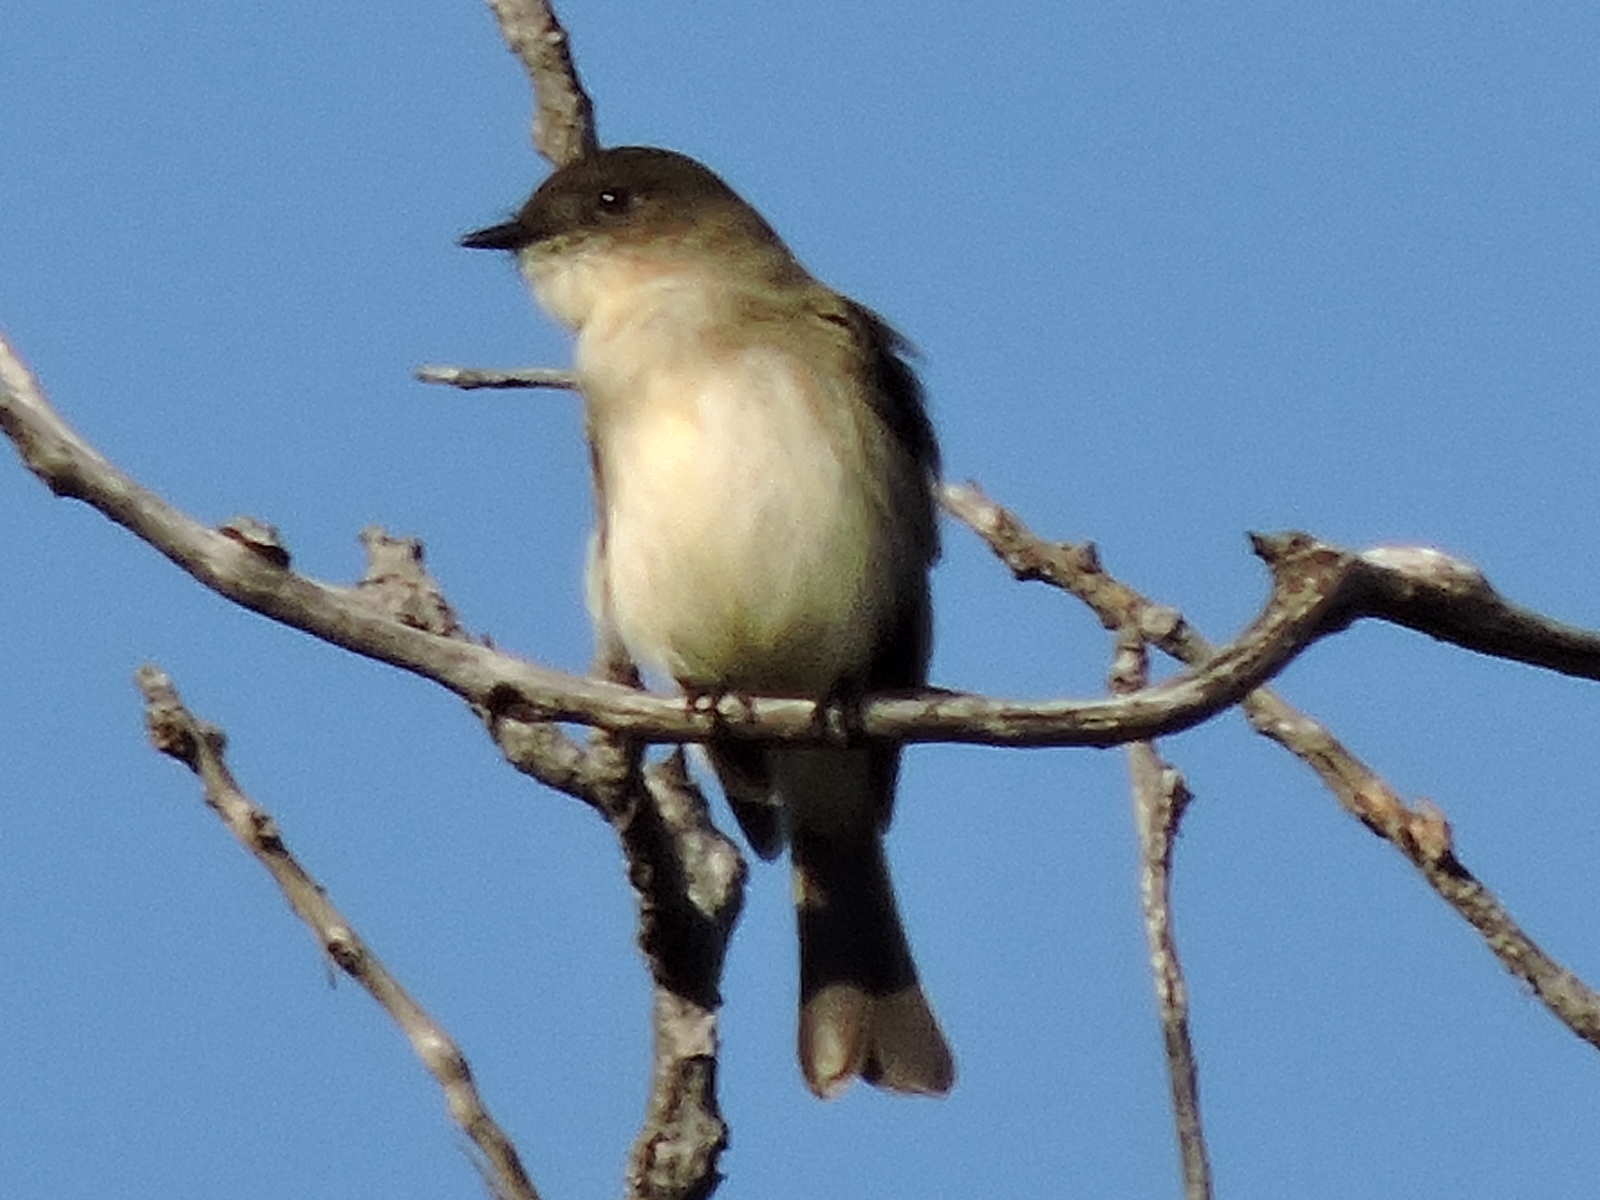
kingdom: Animalia
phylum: Chordata
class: Aves
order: Passeriformes
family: Tyrannidae
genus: Sayornis
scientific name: Sayornis phoebe
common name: Eastern phoebe
